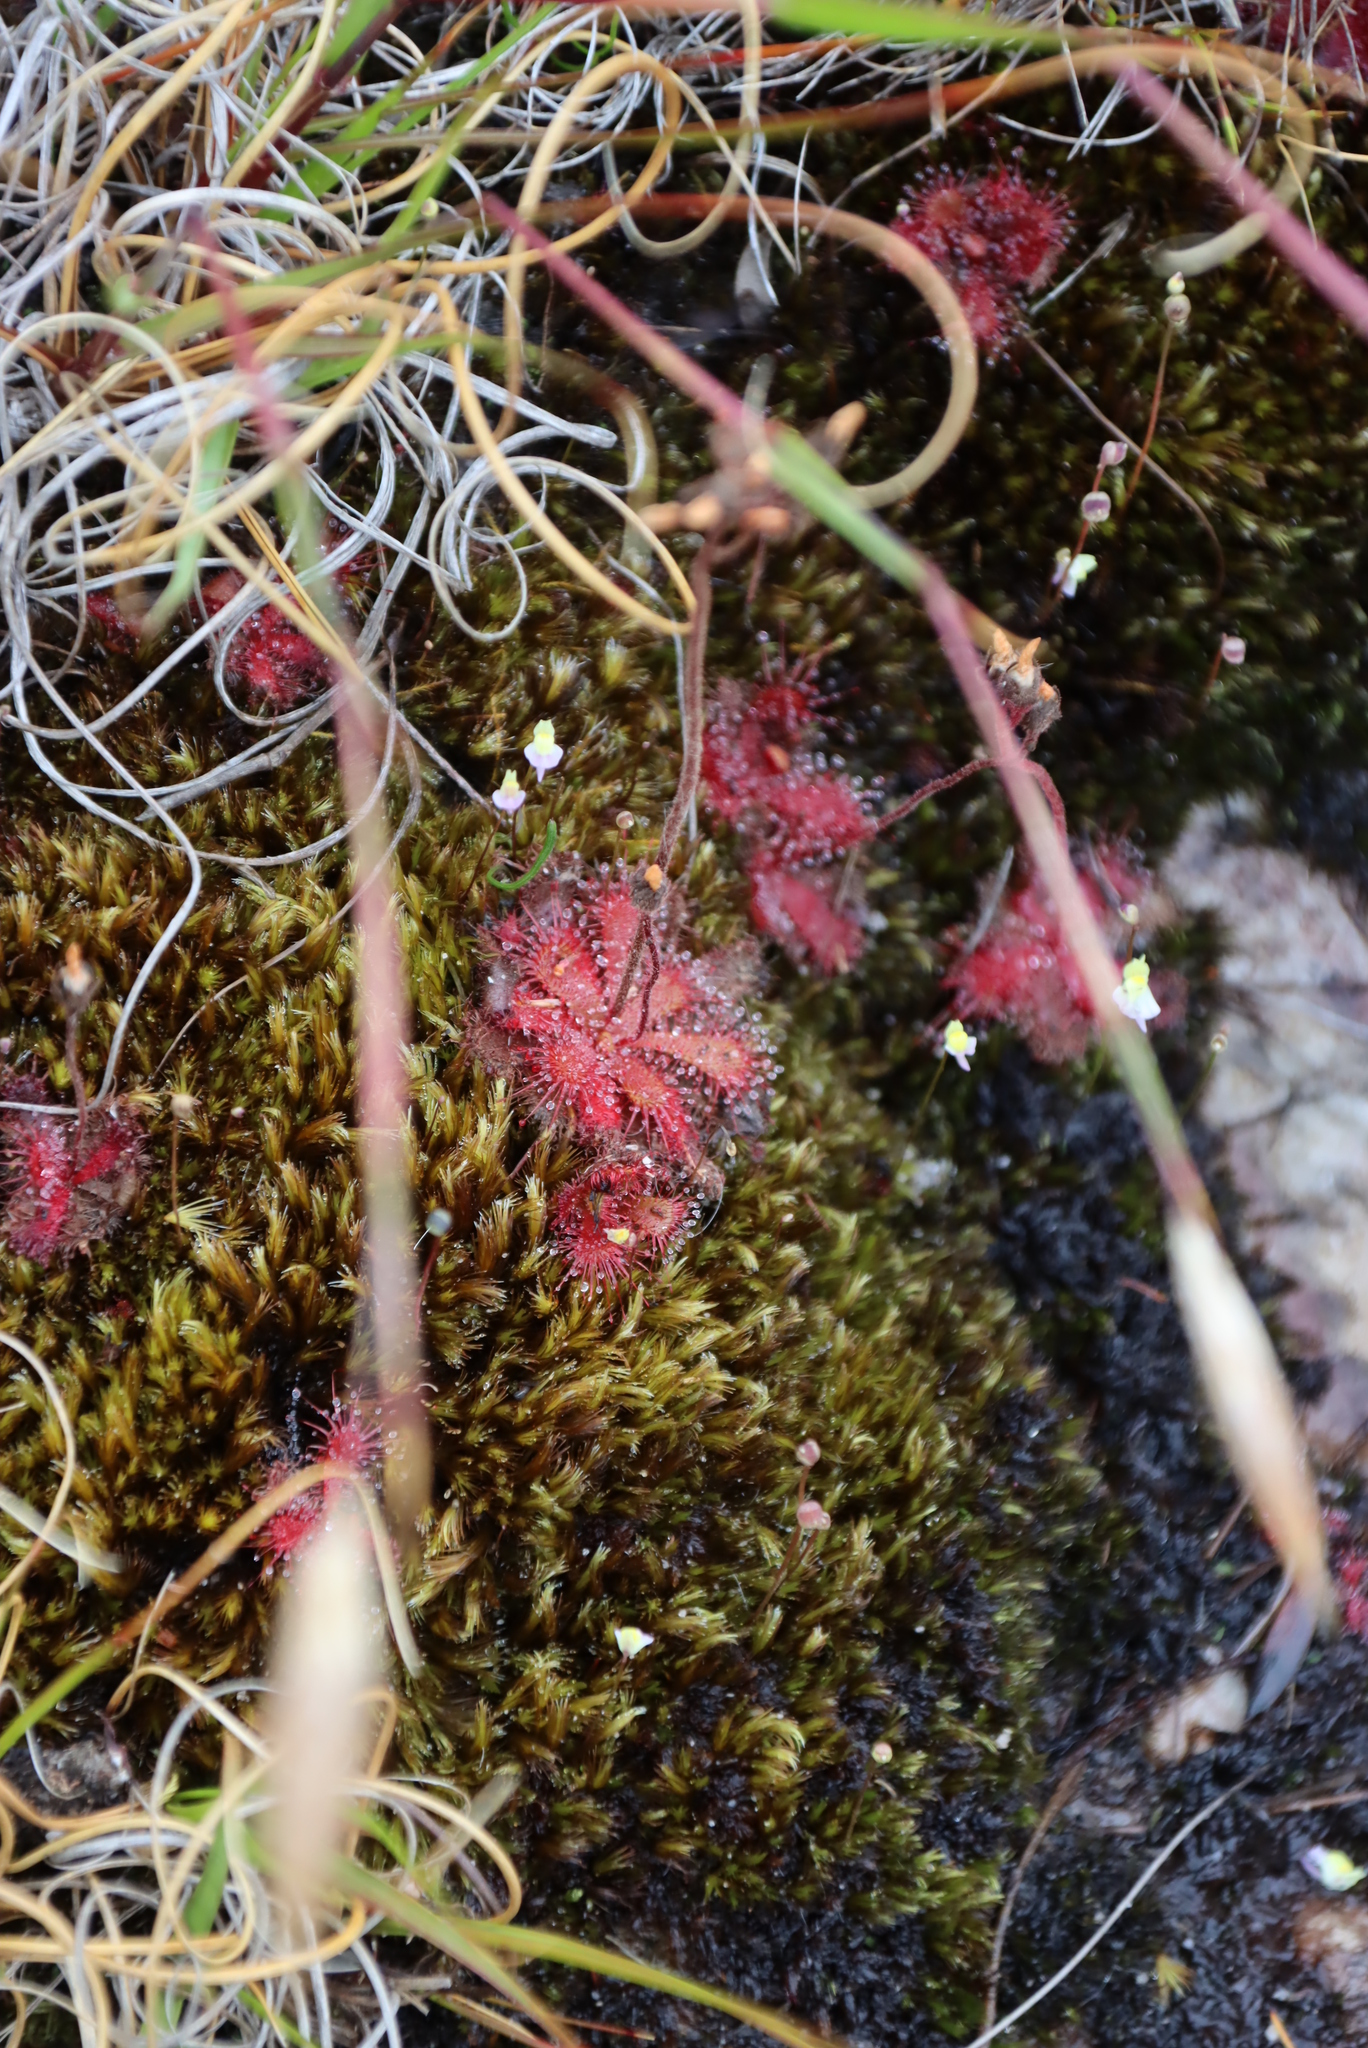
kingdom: Plantae
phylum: Tracheophyta
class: Magnoliopsida
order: Caryophyllales
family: Droseraceae
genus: Drosera
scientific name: Drosera trinervia
